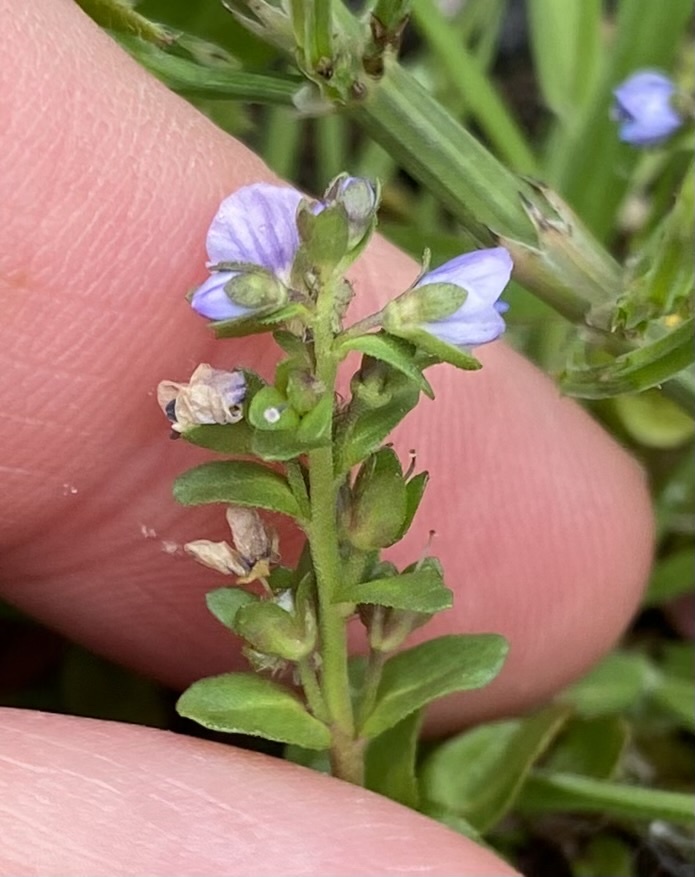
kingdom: Plantae
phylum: Tracheophyta
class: Magnoliopsida
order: Lamiales
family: Plantaginaceae
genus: Veronica
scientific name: Veronica serpyllifolia
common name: Thyme-leaved speedwell
